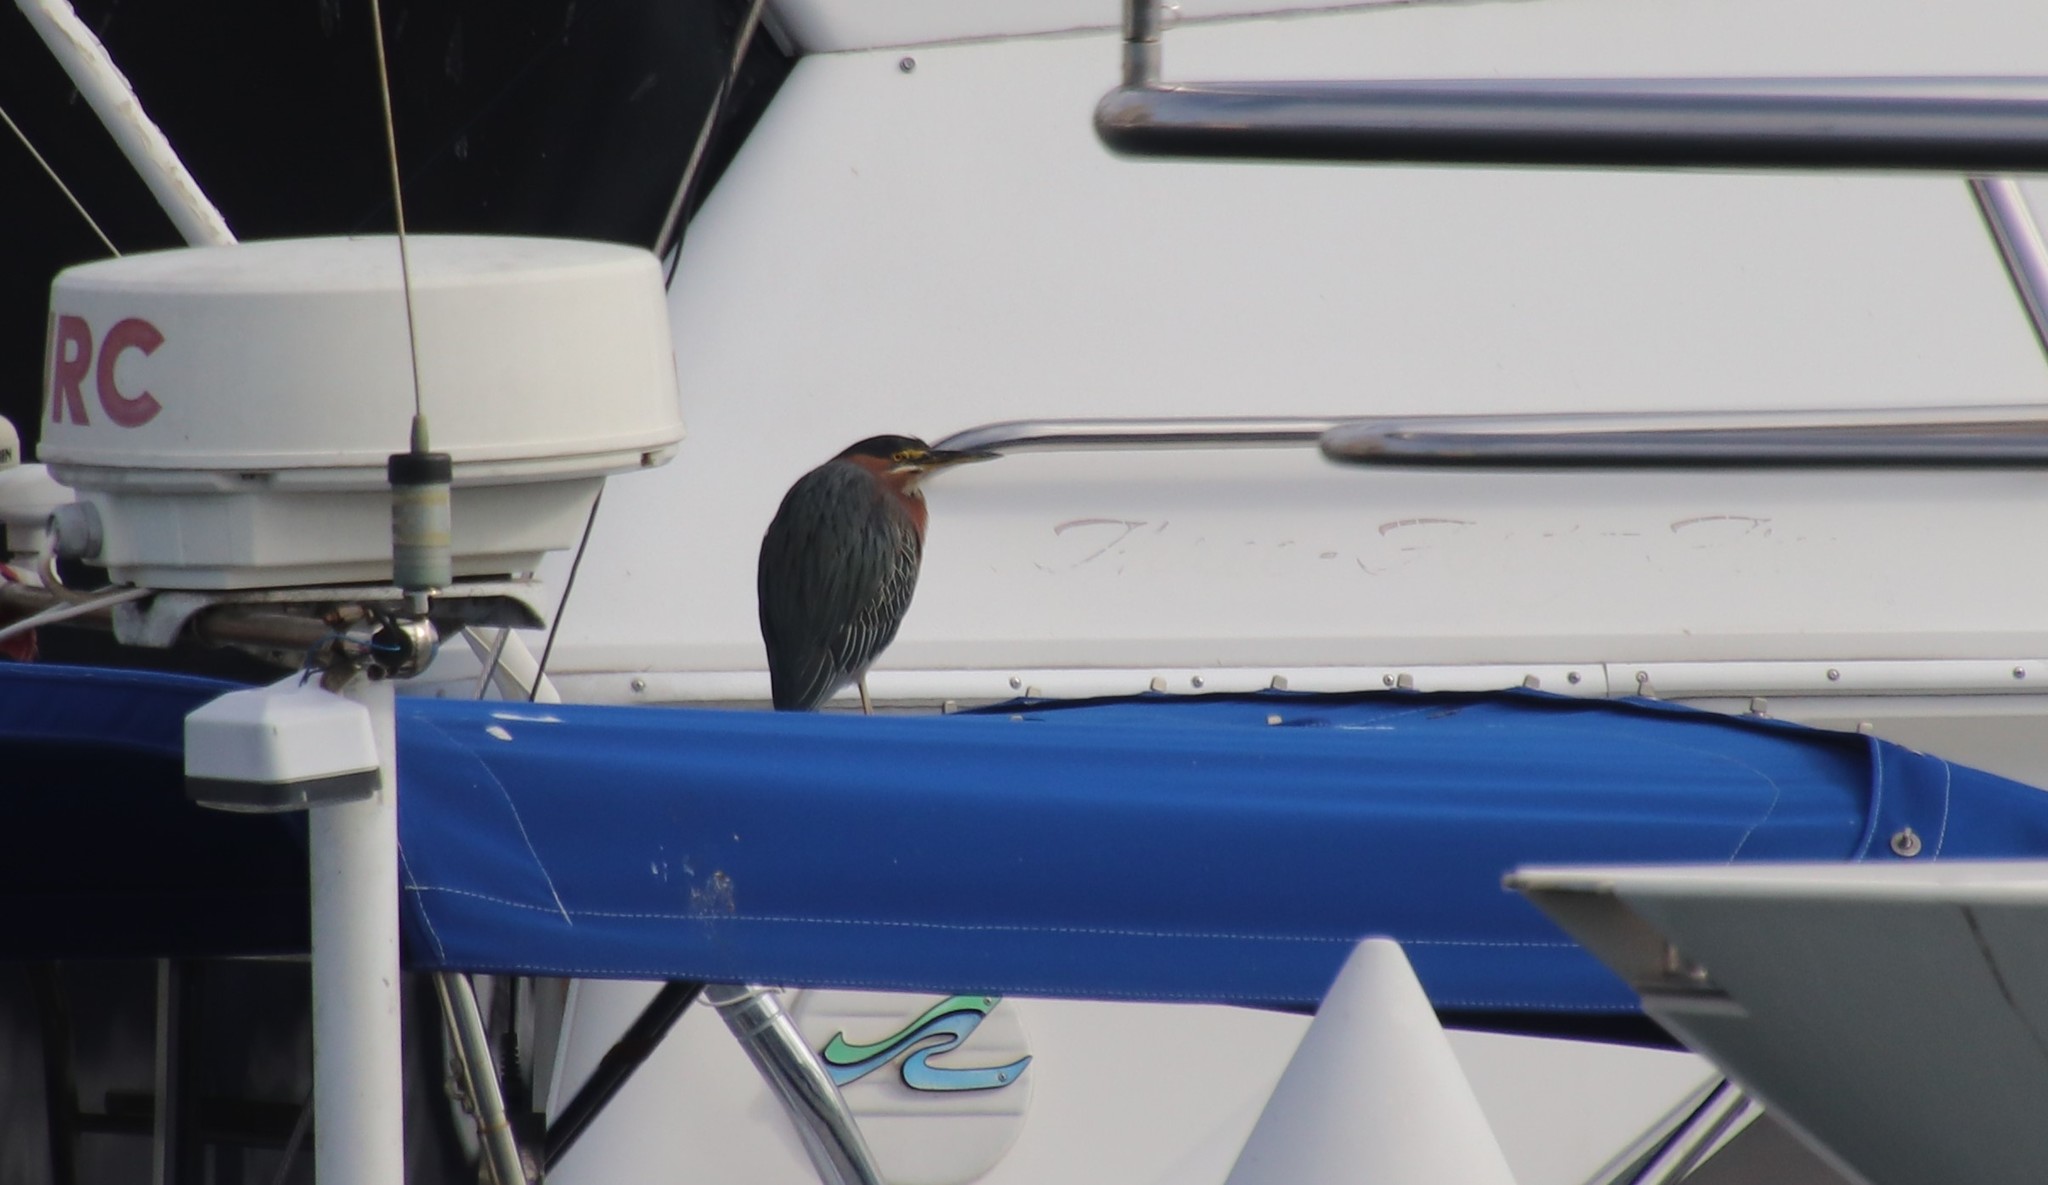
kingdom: Animalia
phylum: Chordata
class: Aves
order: Pelecaniformes
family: Ardeidae
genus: Butorides
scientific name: Butorides virescens
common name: Green heron
